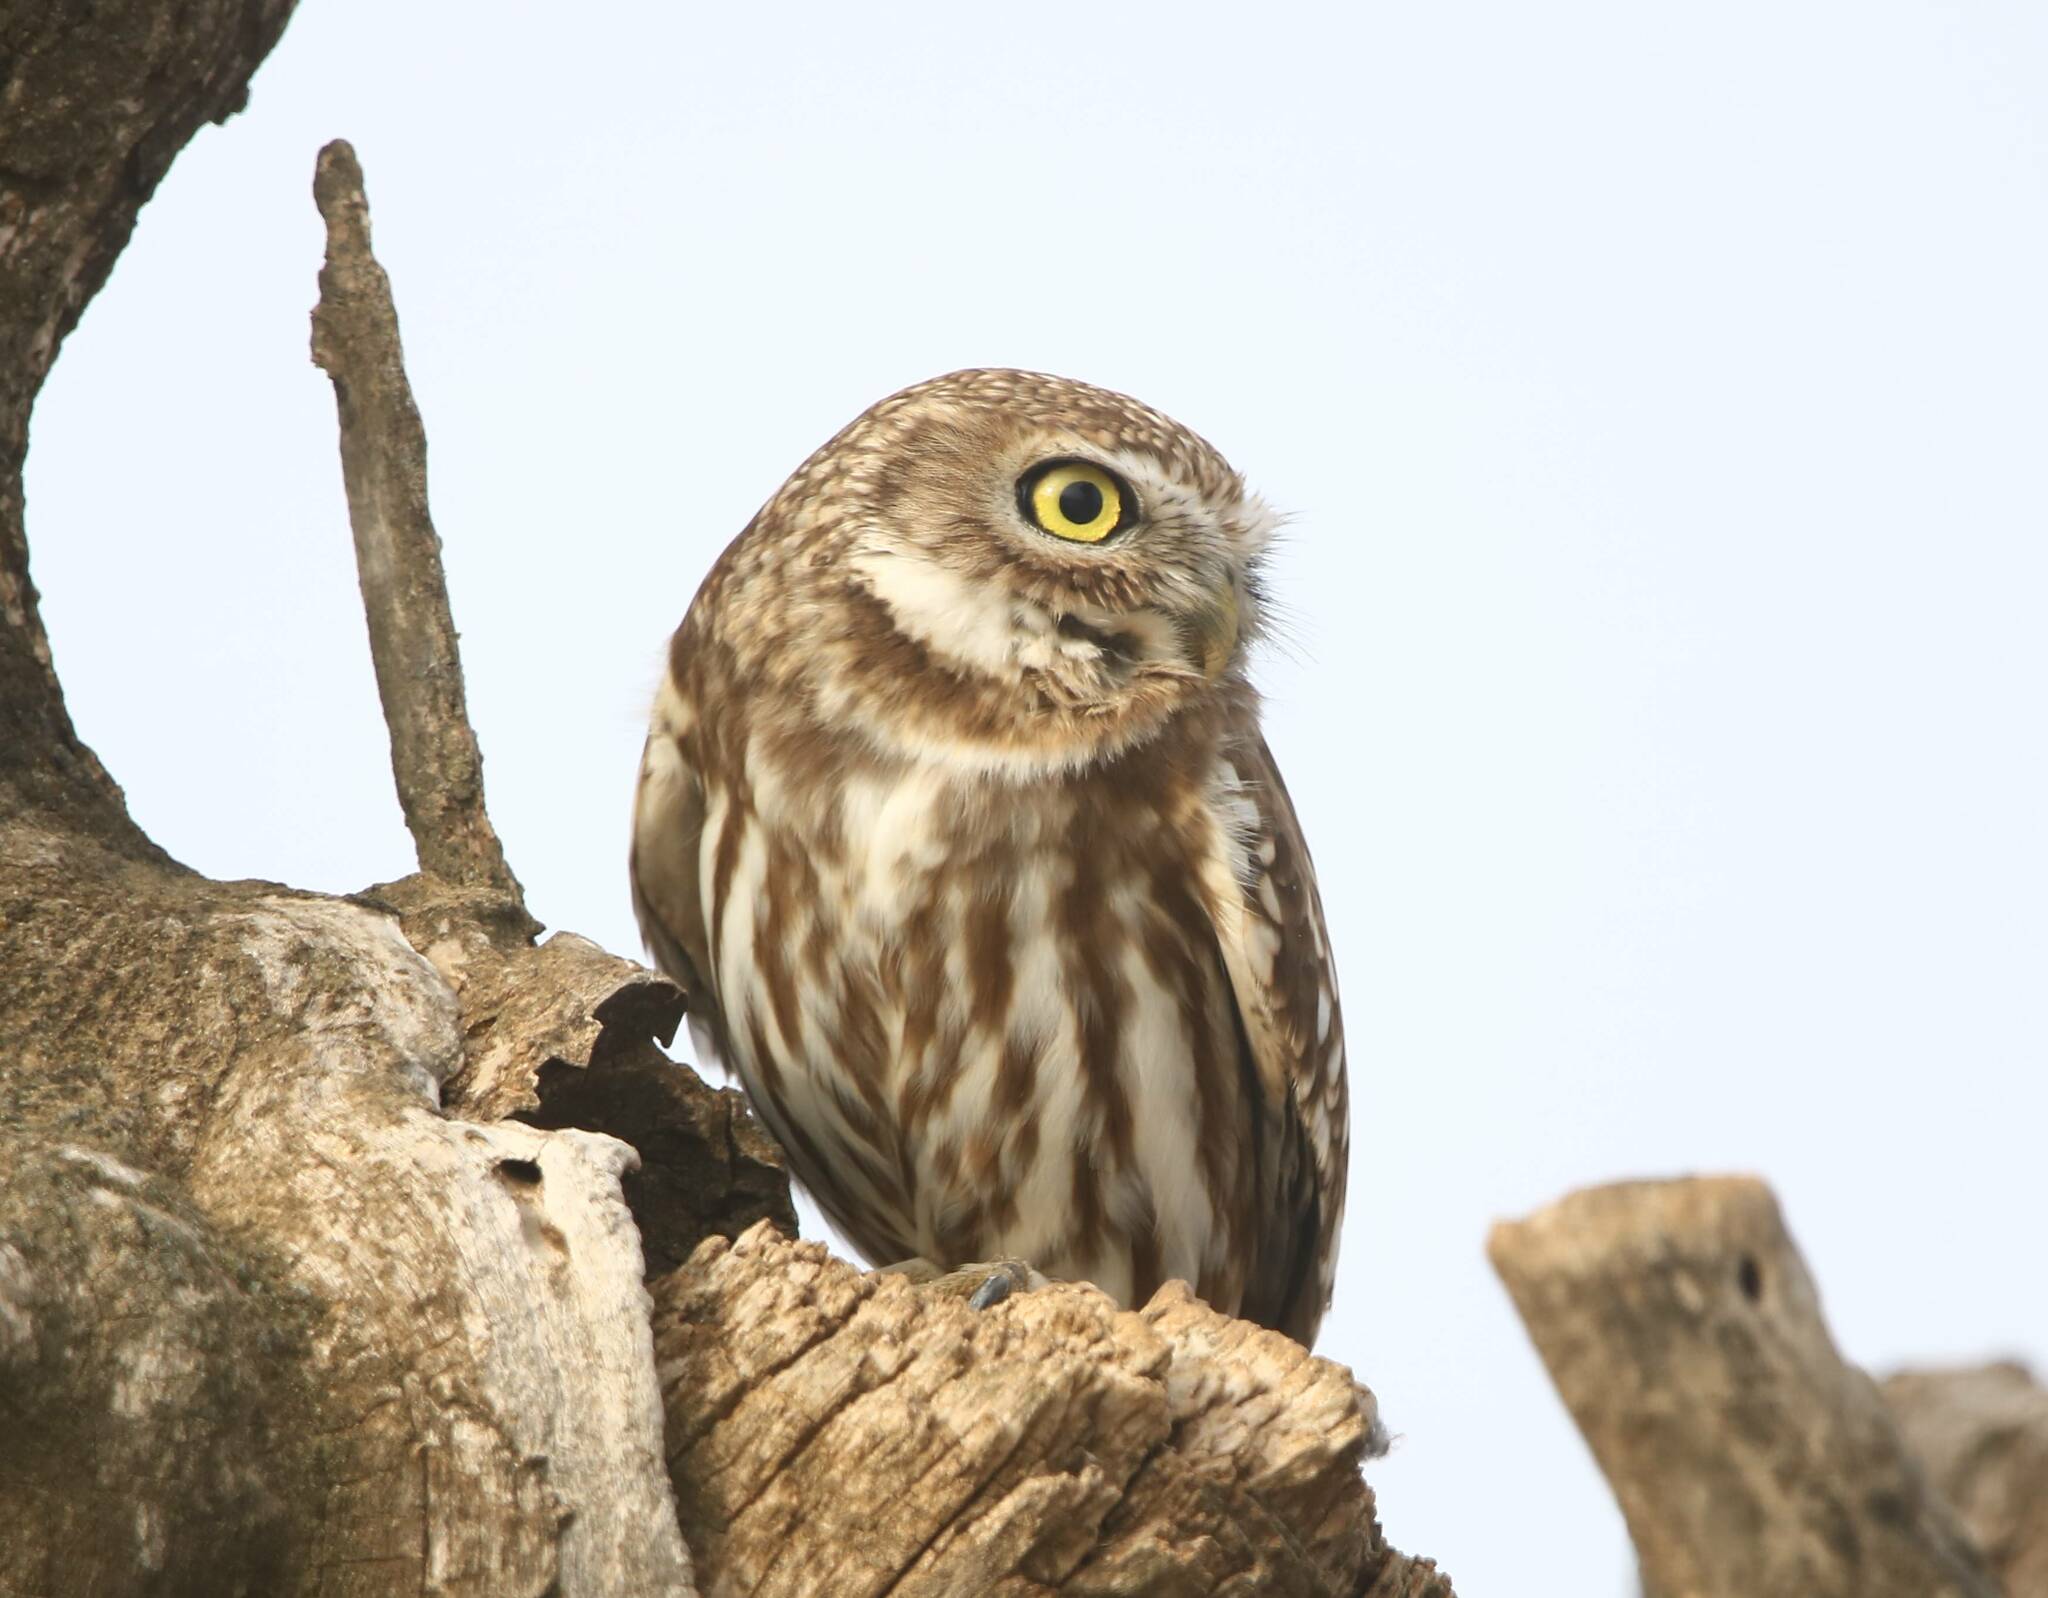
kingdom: Animalia
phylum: Chordata
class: Aves
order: Strigiformes
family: Strigidae
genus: Athene
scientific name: Athene noctua
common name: Little owl
